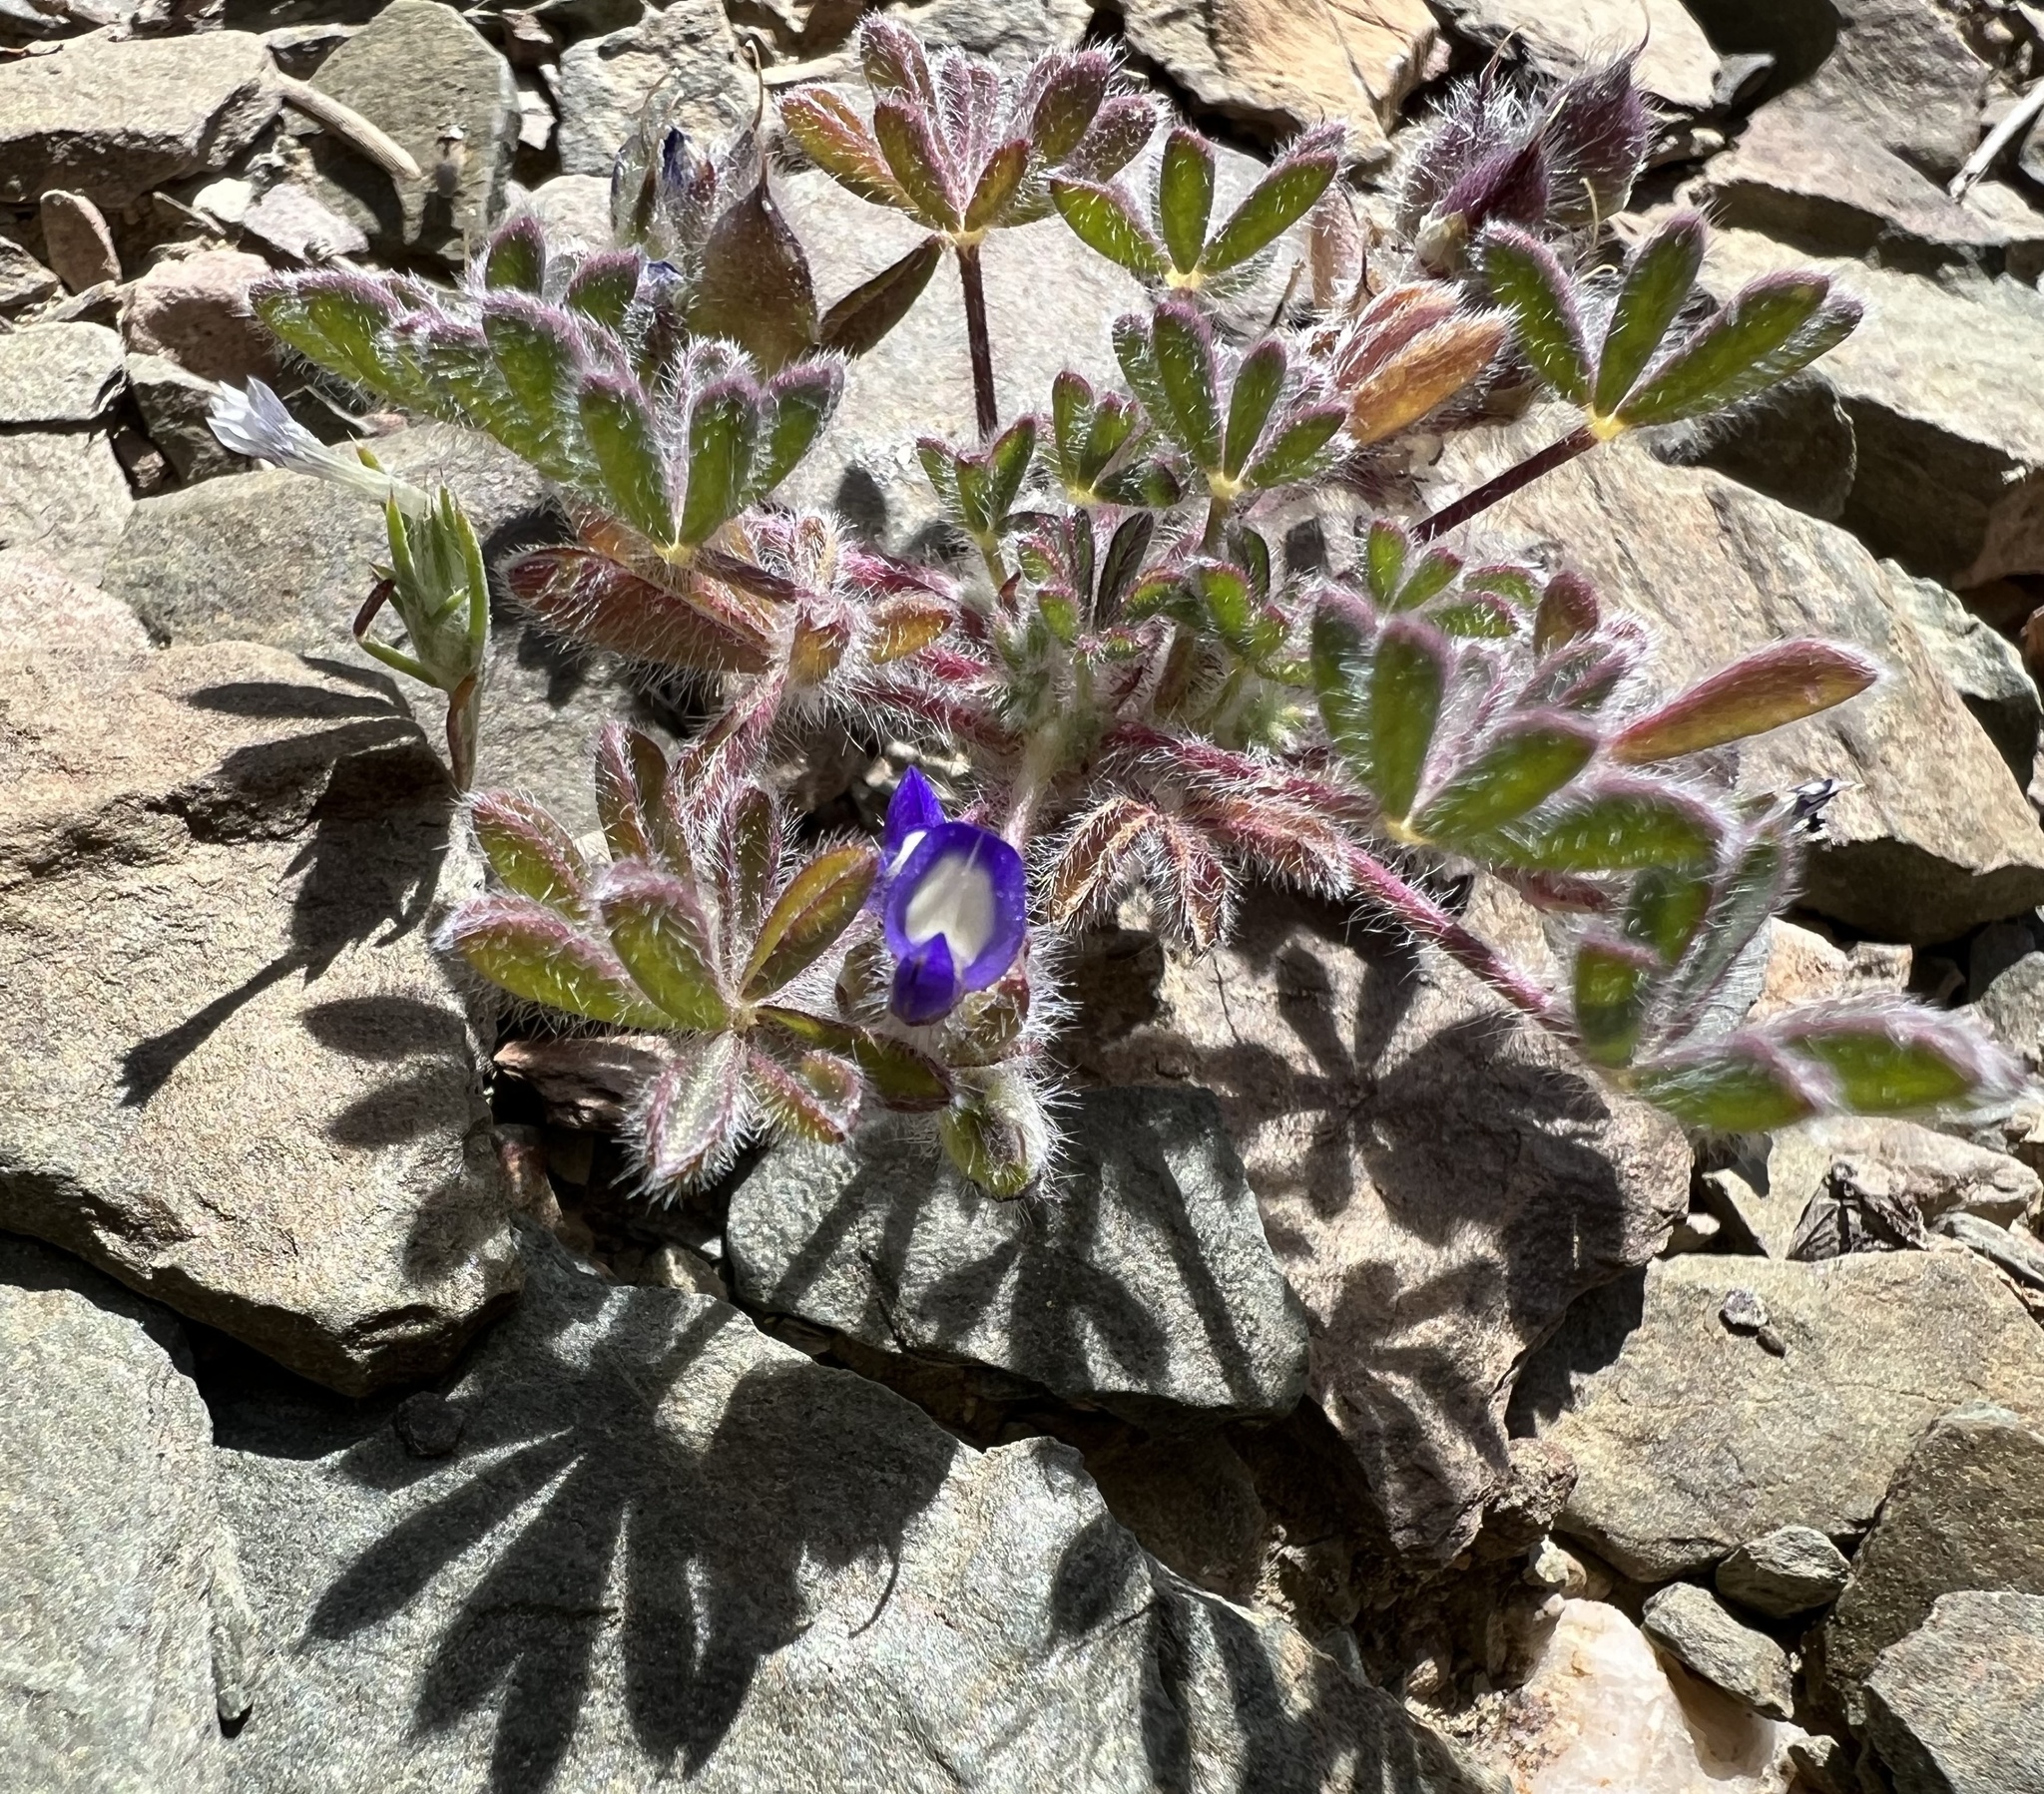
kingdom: Plantae
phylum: Tracheophyta
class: Magnoliopsida
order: Fabales
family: Fabaceae
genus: Lupinus
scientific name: Lupinus brevicaulis
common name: Sand lupine
